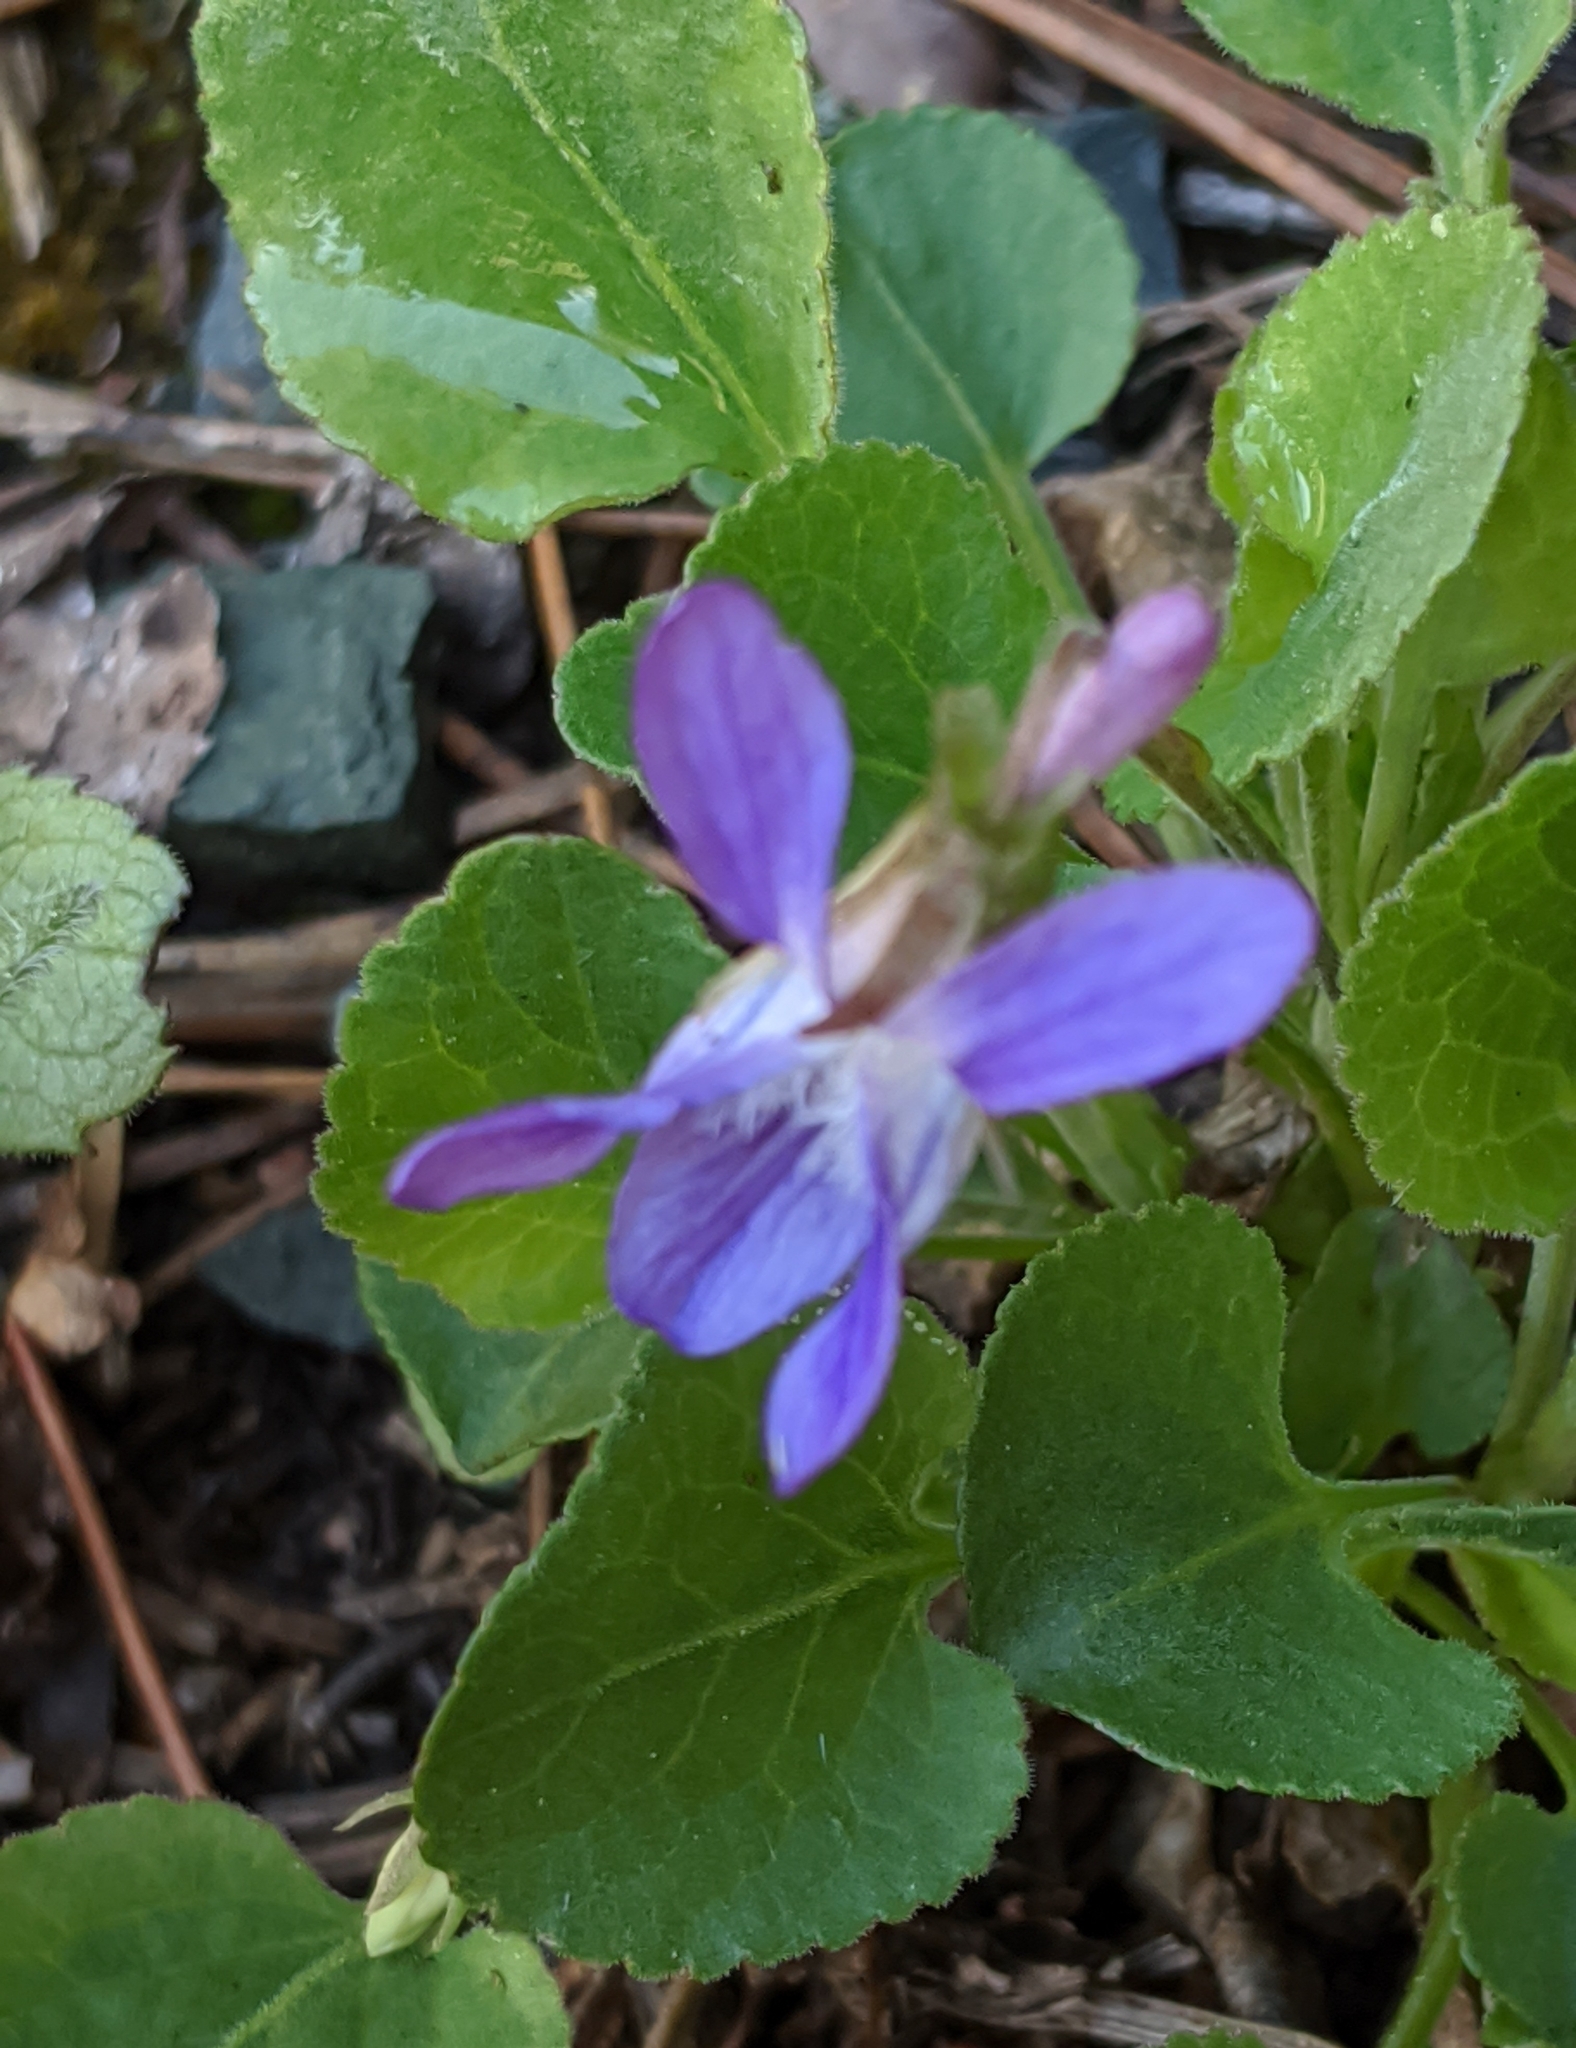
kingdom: Plantae
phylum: Tracheophyta
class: Magnoliopsida
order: Malpighiales
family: Violaceae
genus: Viola
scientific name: Viola adunca
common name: Sand violet
